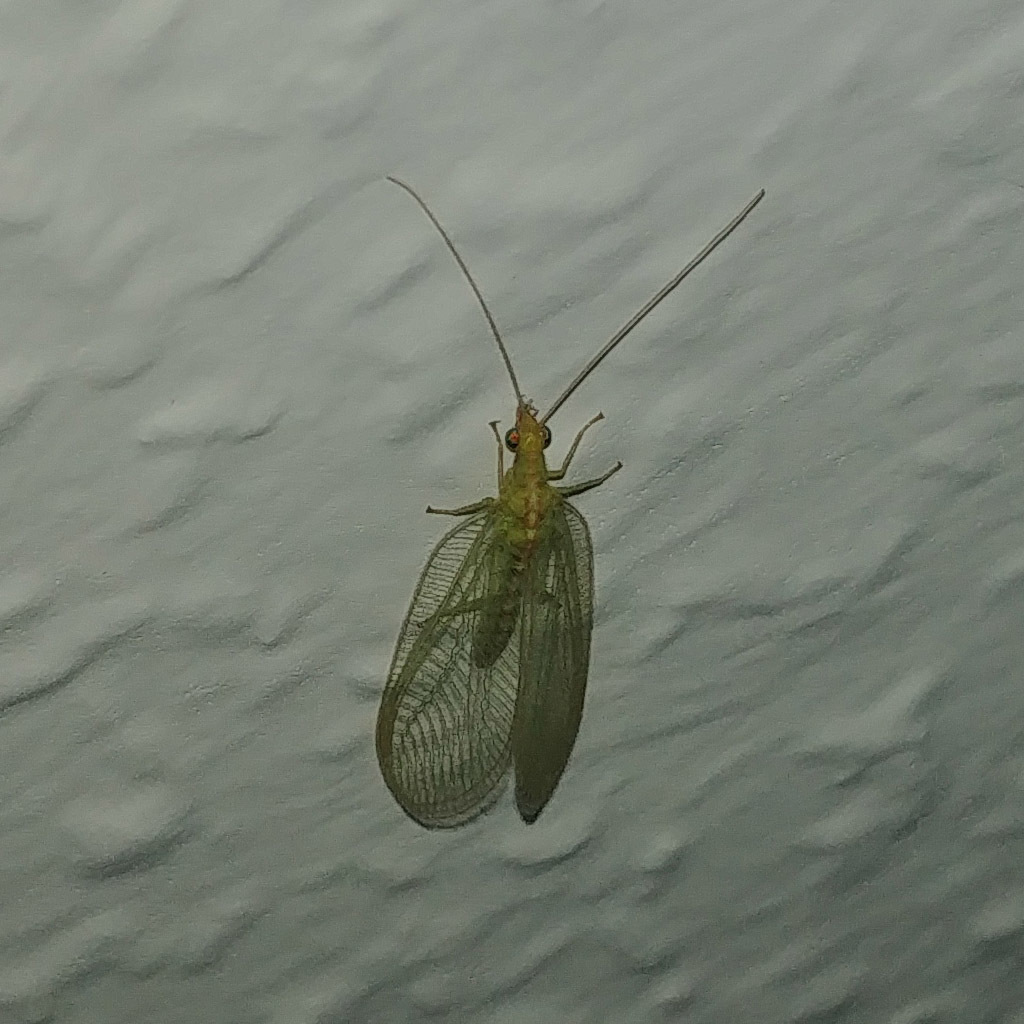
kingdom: Animalia
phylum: Arthropoda
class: Insecta
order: Neuroptera
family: Chrysopidae
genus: Chrysoperla
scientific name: Chrysoperla
